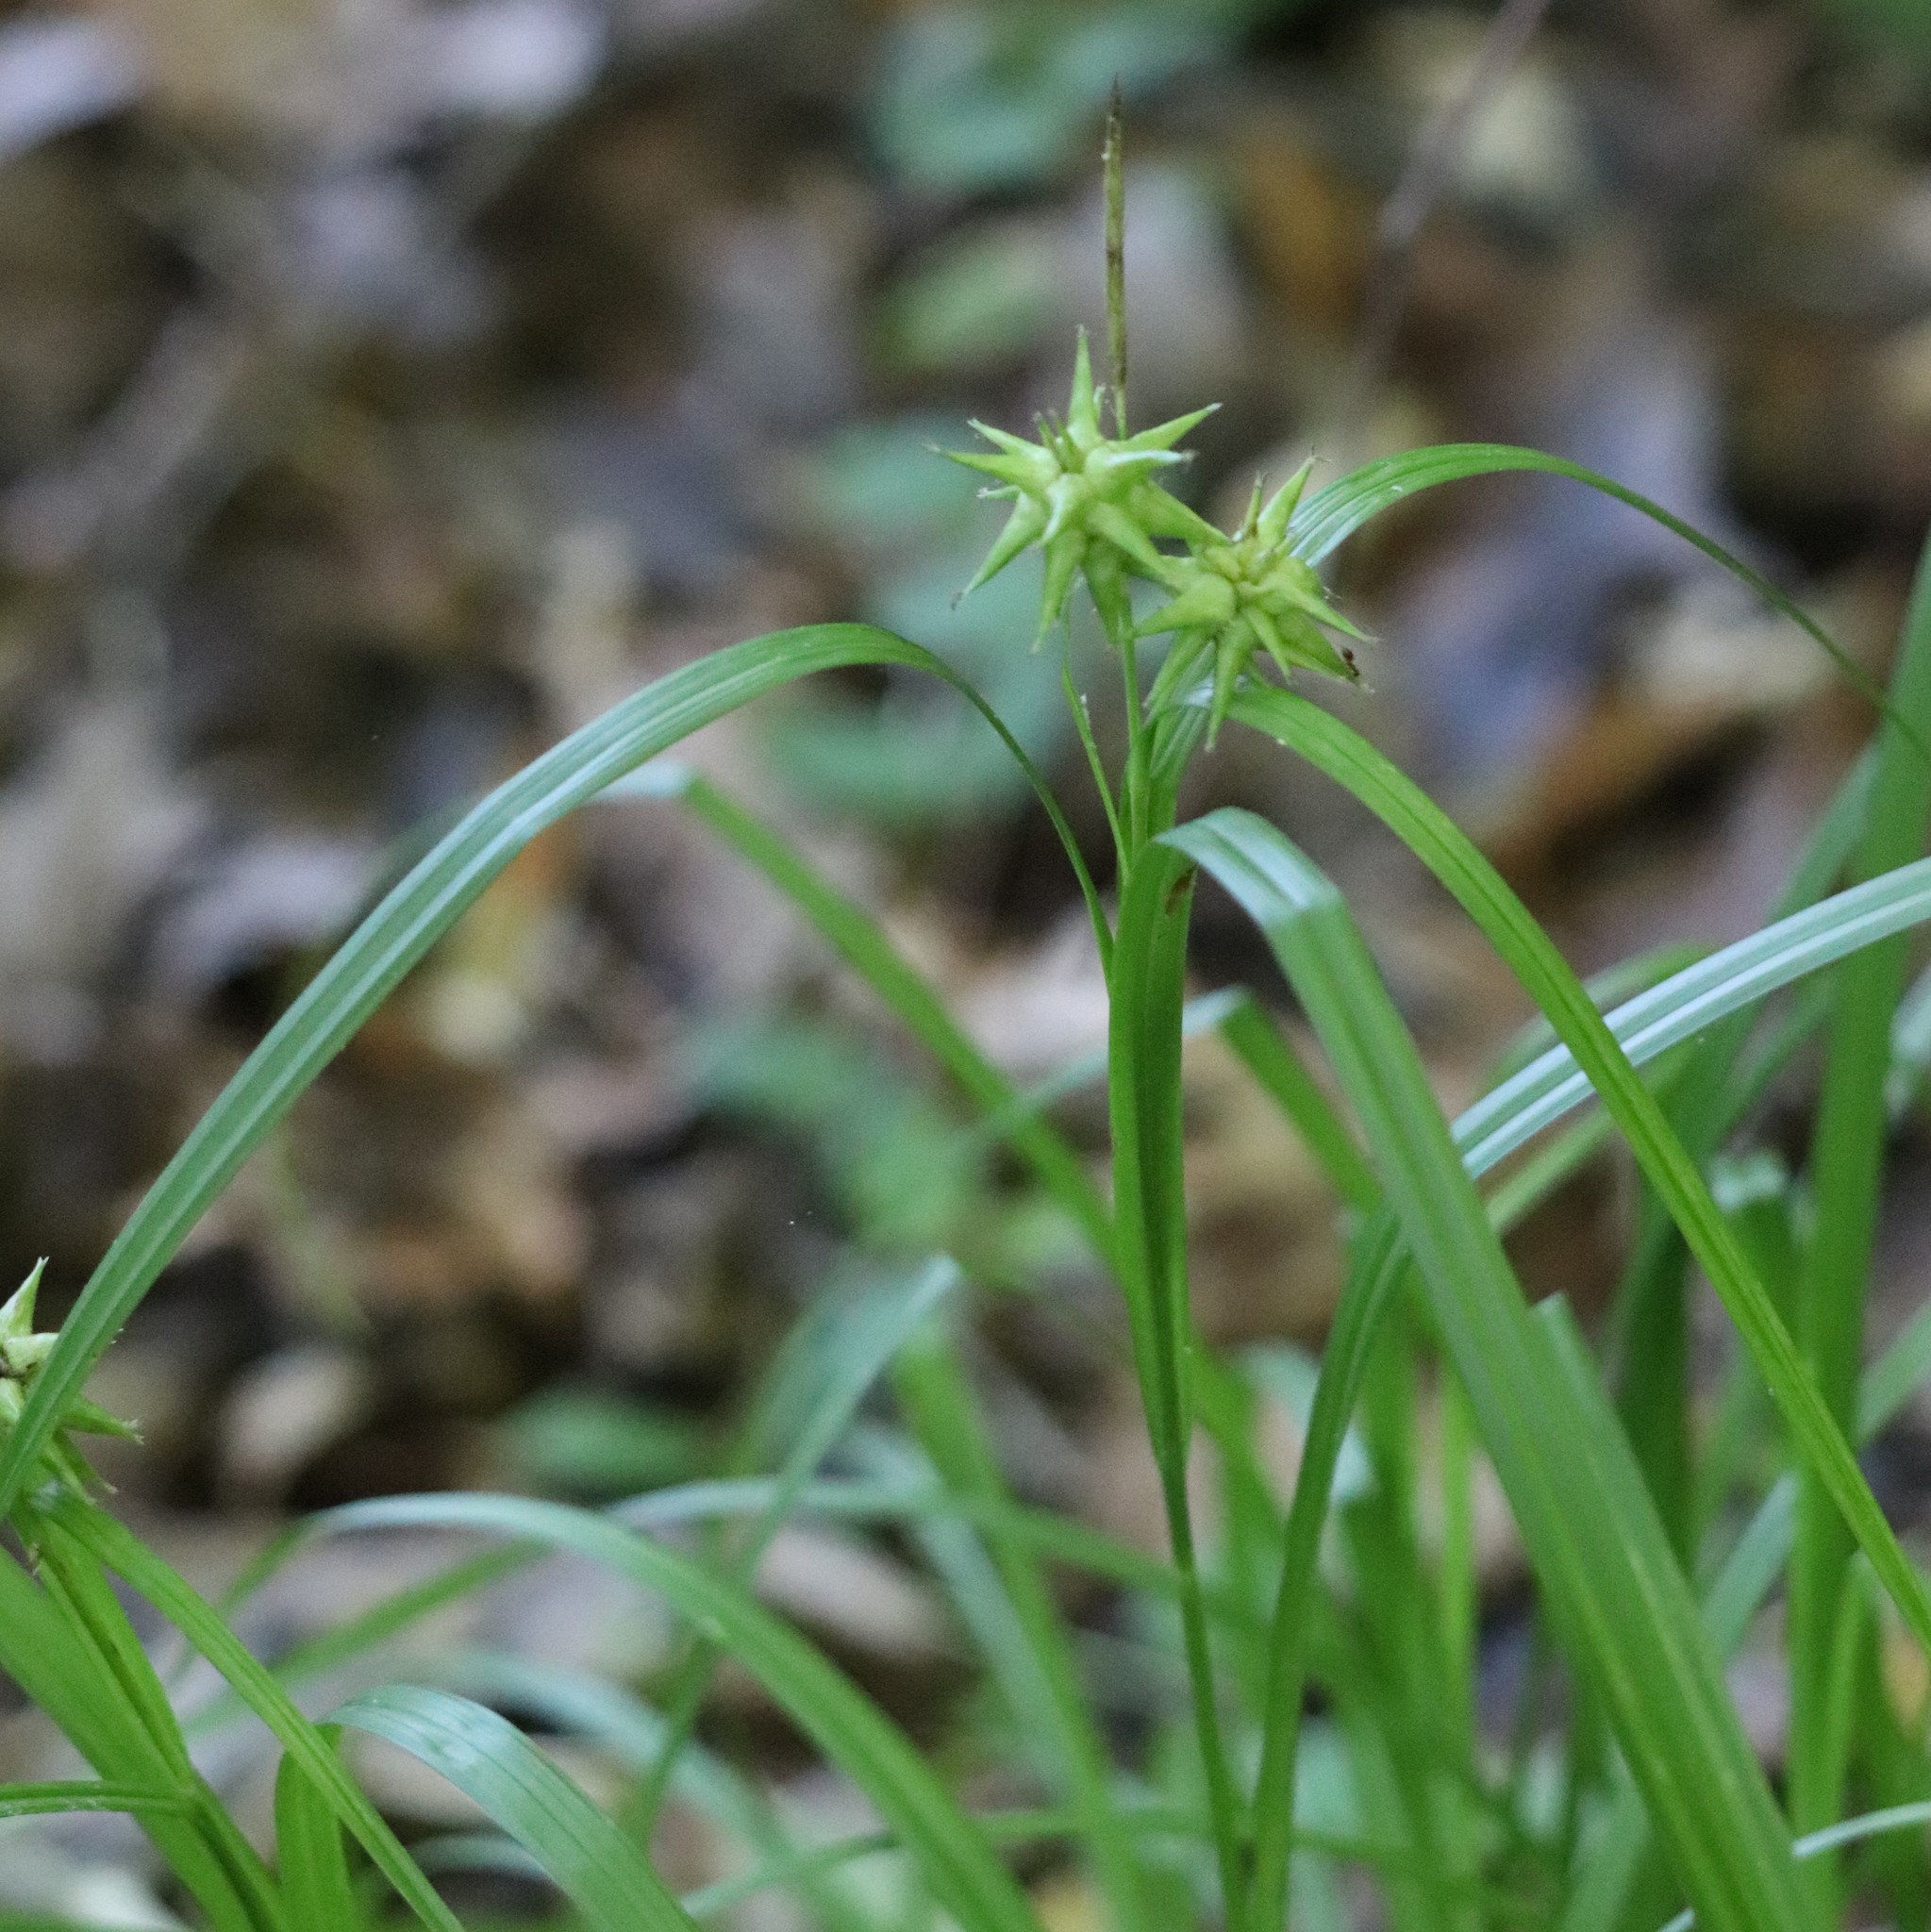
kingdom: Plantae
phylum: Tracheophyta
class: Liliopsida
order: Poales
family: Cyperaceae
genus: Carex
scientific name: Carex grayi
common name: Asa gray's sedge
